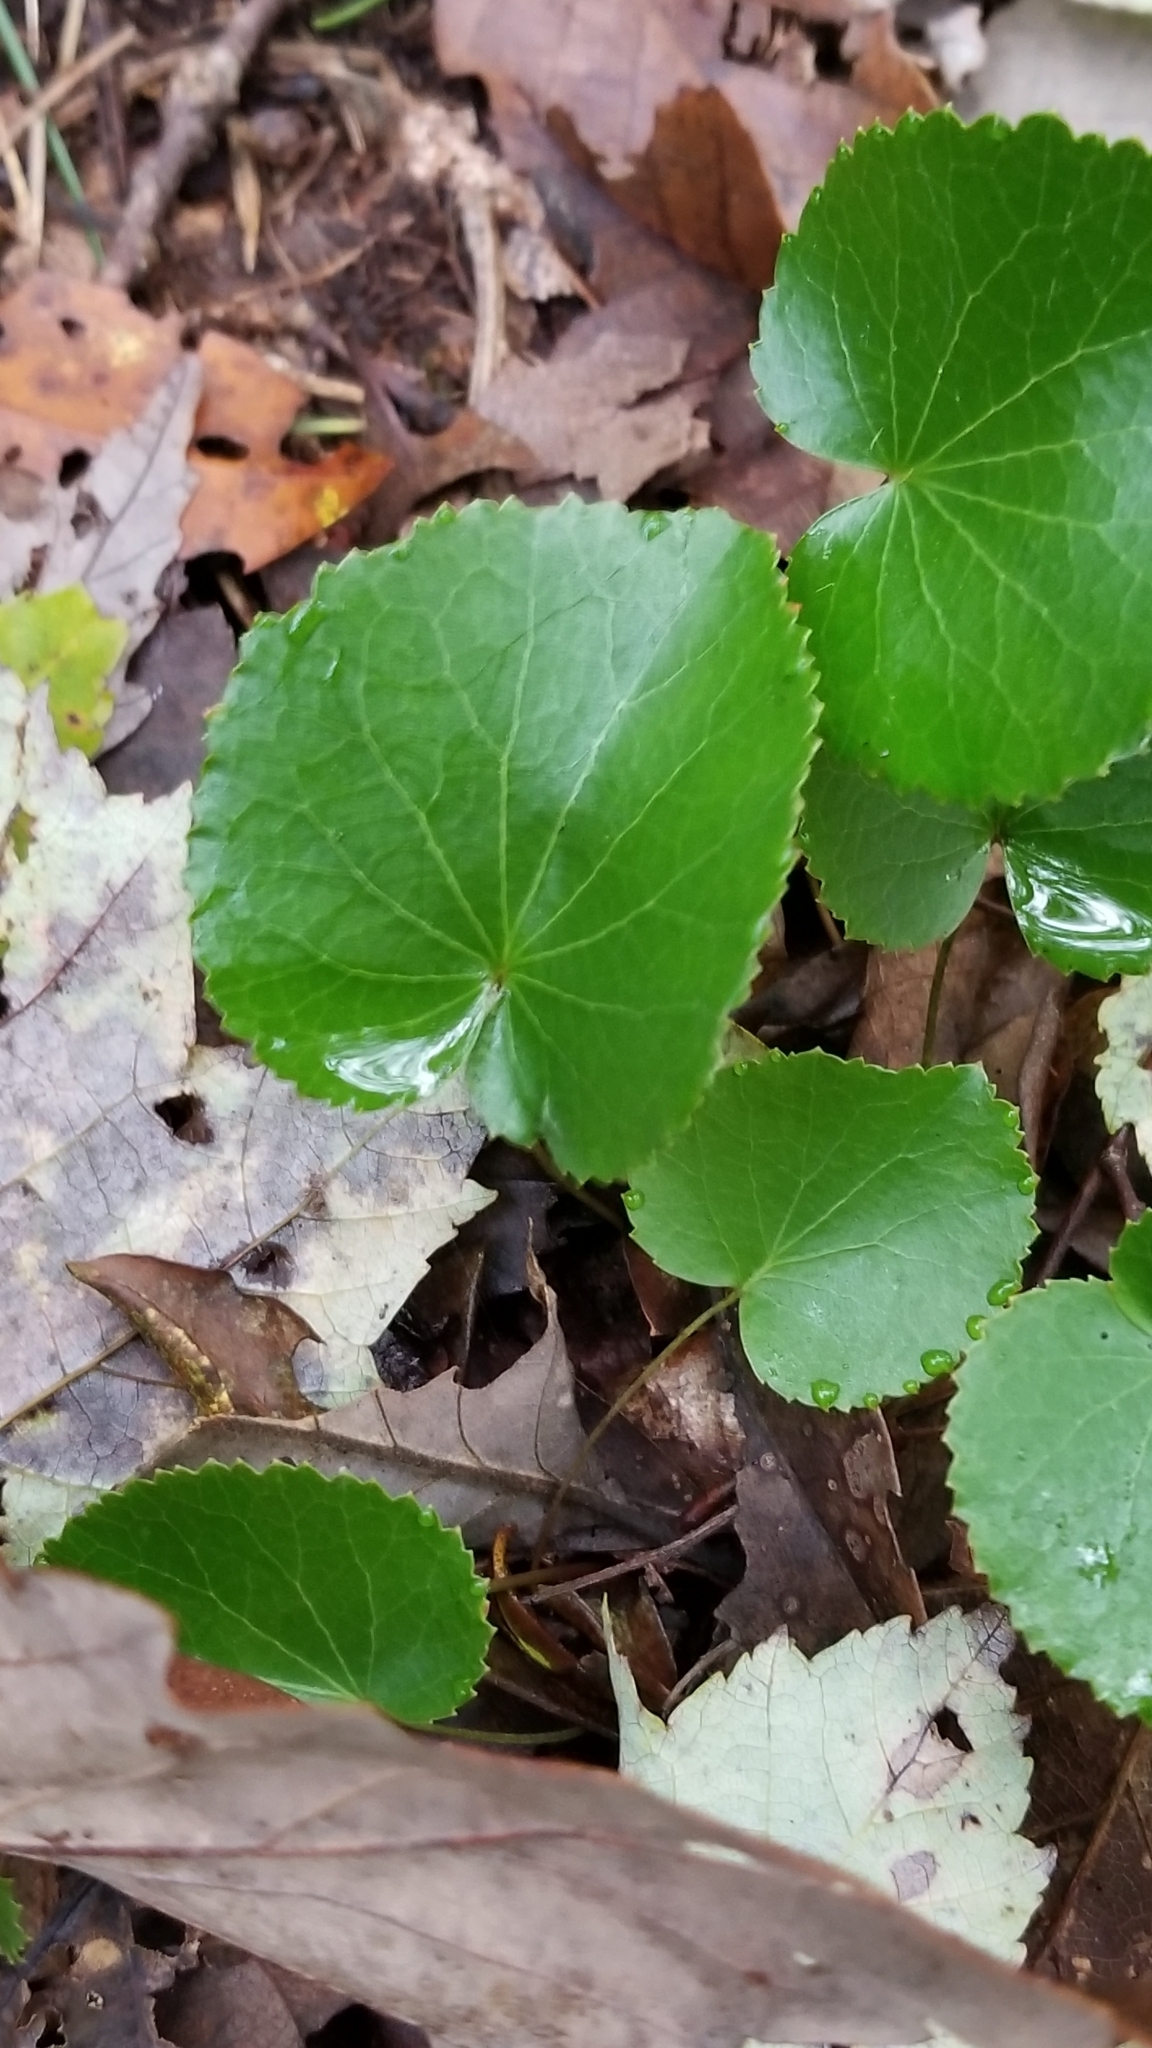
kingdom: Plantae
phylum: Tracheophyta
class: Magnoliopsida
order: Ericales
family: Diapensiaceae
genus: Galax
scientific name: Galax urceolata
